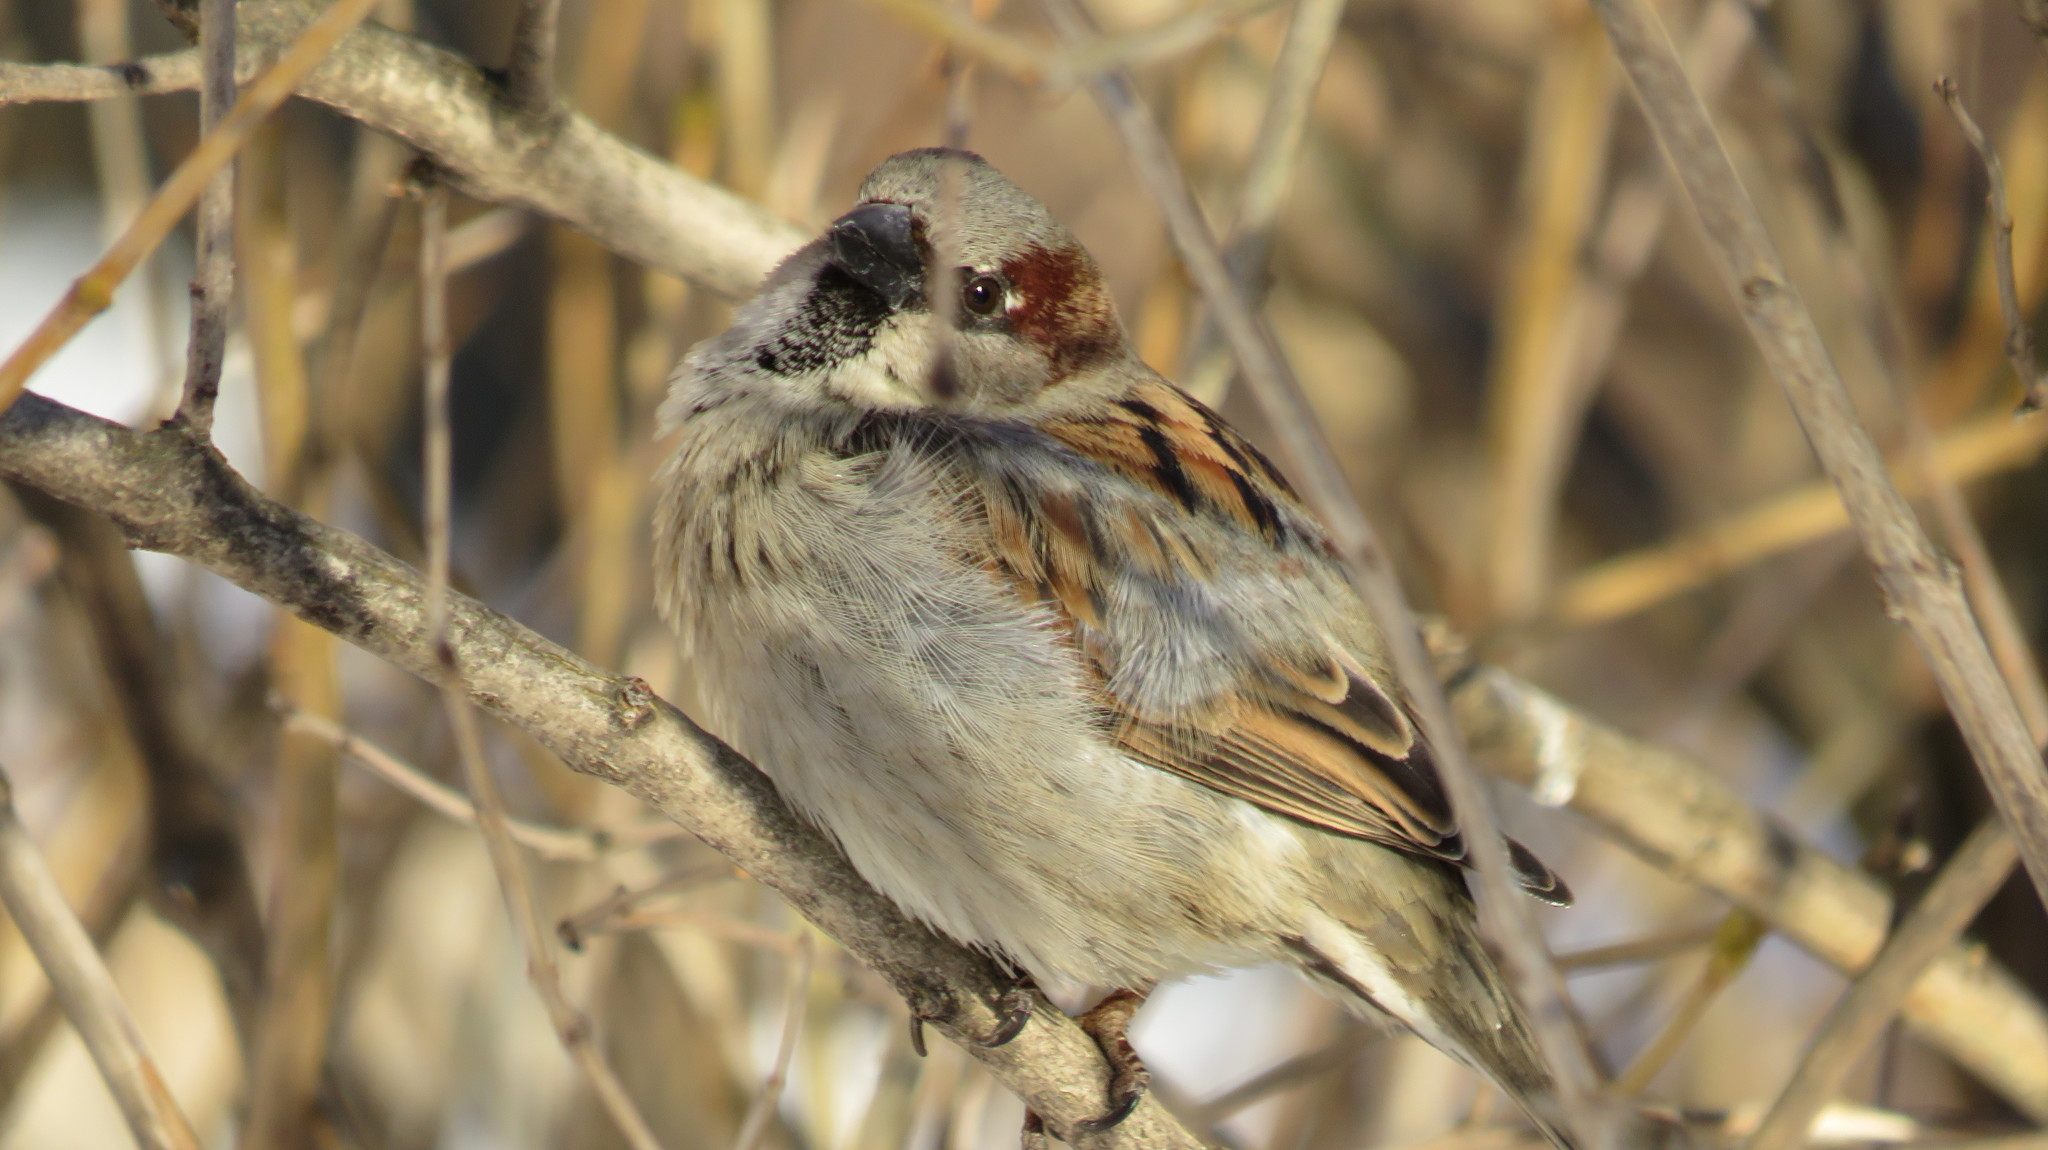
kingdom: Animalia
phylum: Chordata
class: Aves
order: Passeriformes
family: Passeridae
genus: Passer
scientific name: Passer domesticus
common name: House sparrow
